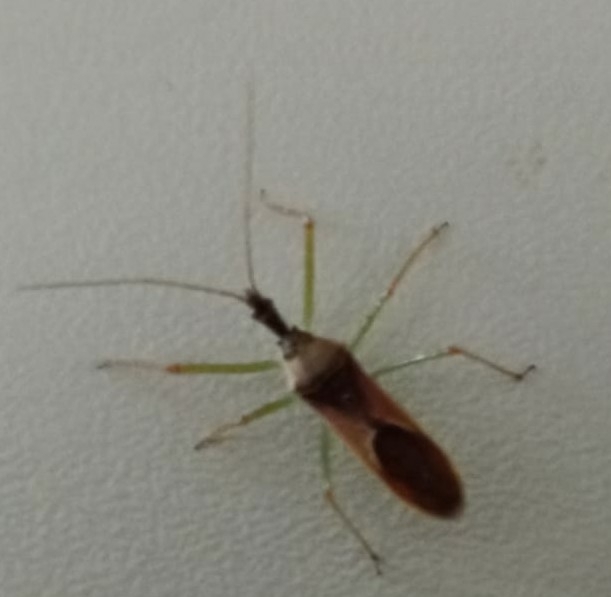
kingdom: Animalia
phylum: Arthropoda
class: Insecta
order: Hemiptera
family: Reduviidae
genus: Zelus
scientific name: Zelus renardii
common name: Assassin bug
